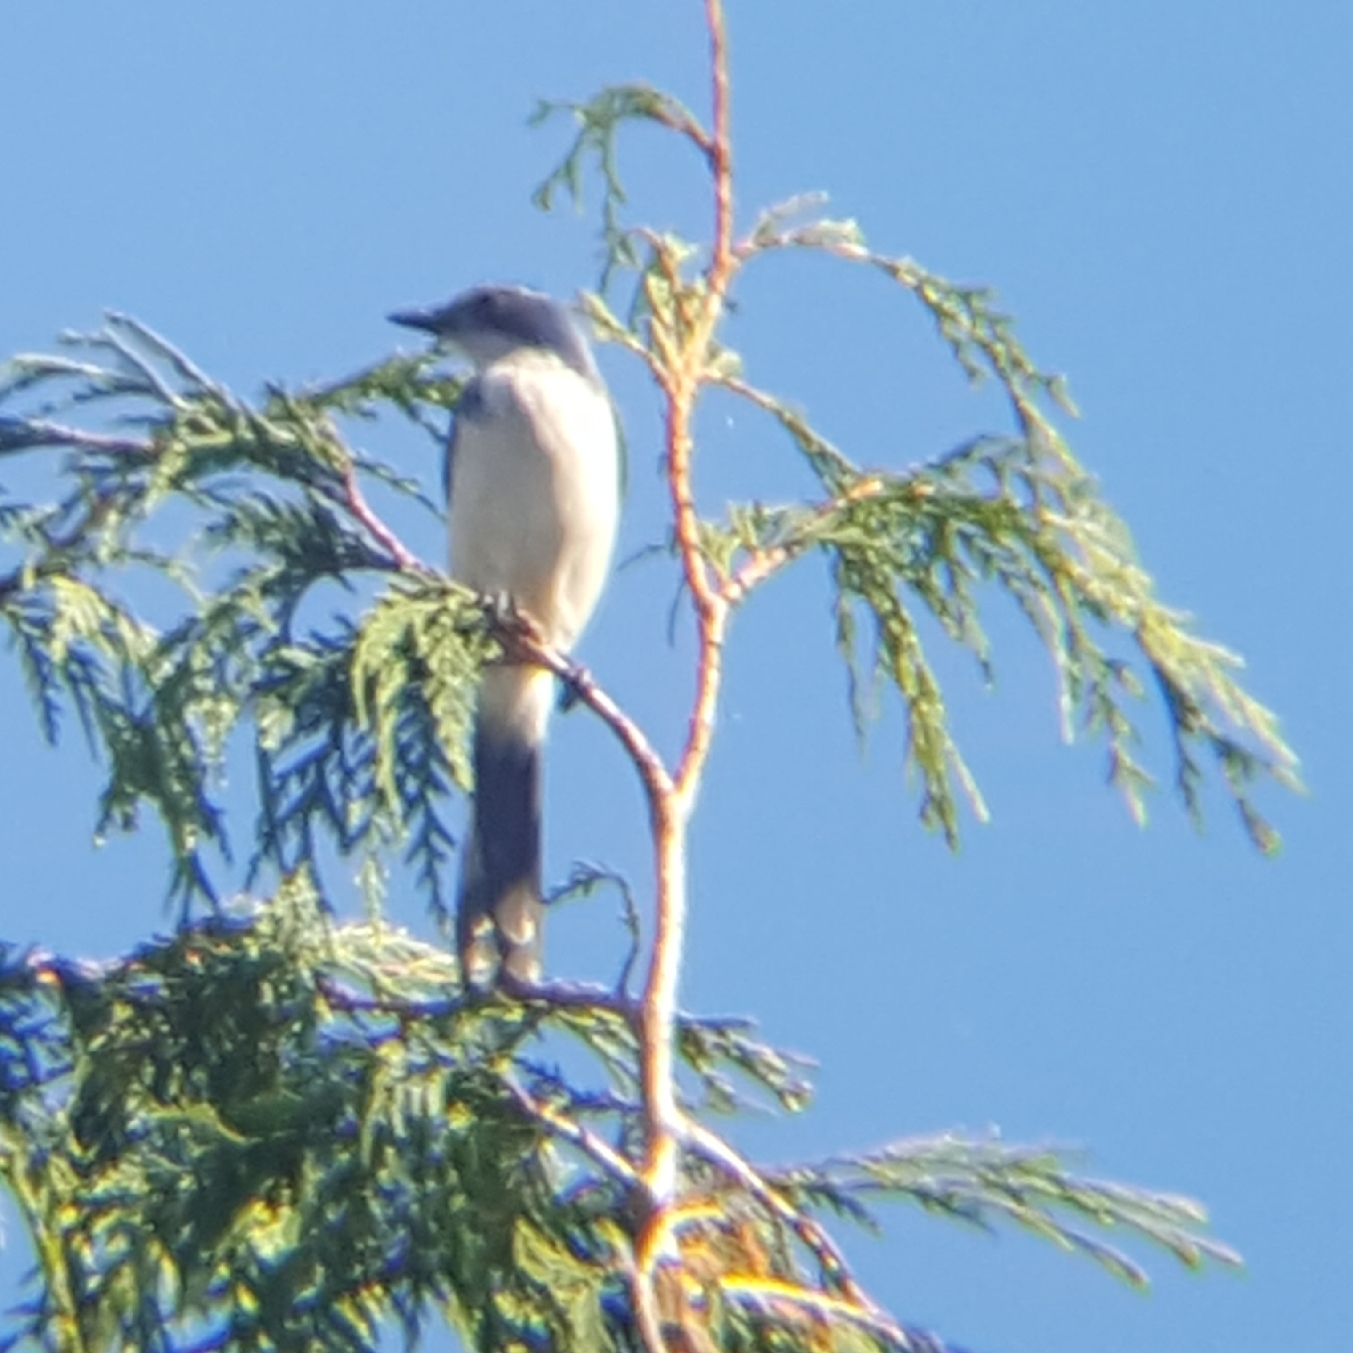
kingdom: Animalia
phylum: Chordata
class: Aves
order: Passeriformes
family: Corvidae
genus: Aphelocoma
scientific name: Aphelocoma californica
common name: California scrub-jay
